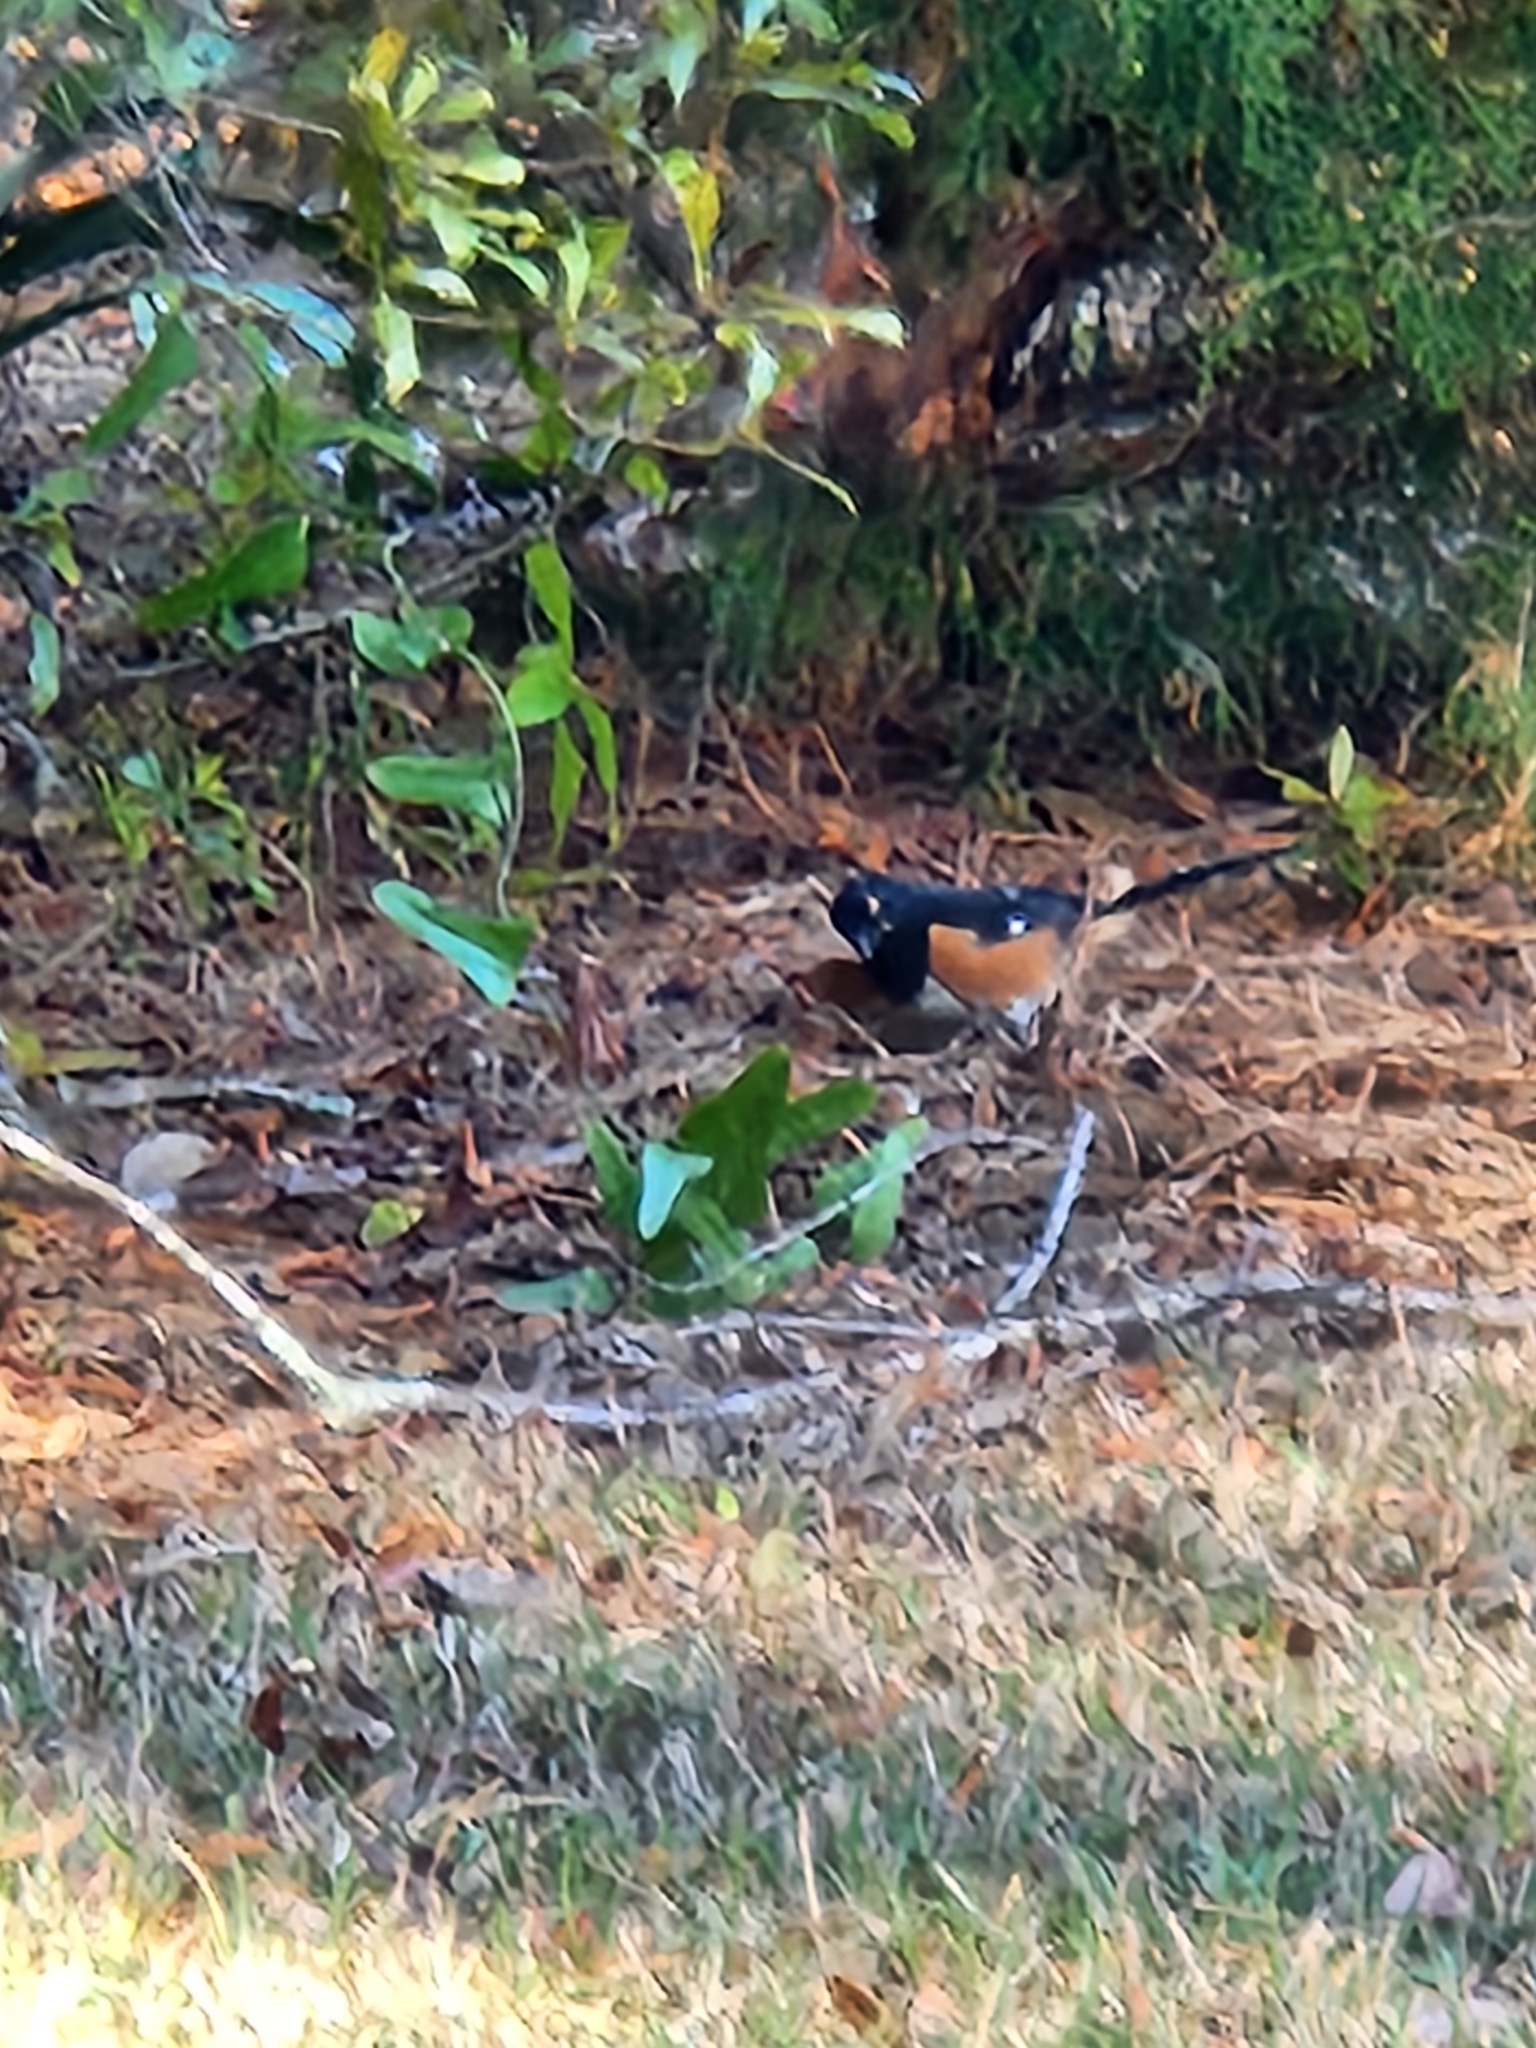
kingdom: Animalia
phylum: Chordata
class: Aves
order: Passeriformes
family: Passerellidae
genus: Pipilo
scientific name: Pipilo erythrophthalmus
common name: Eastern towhee
